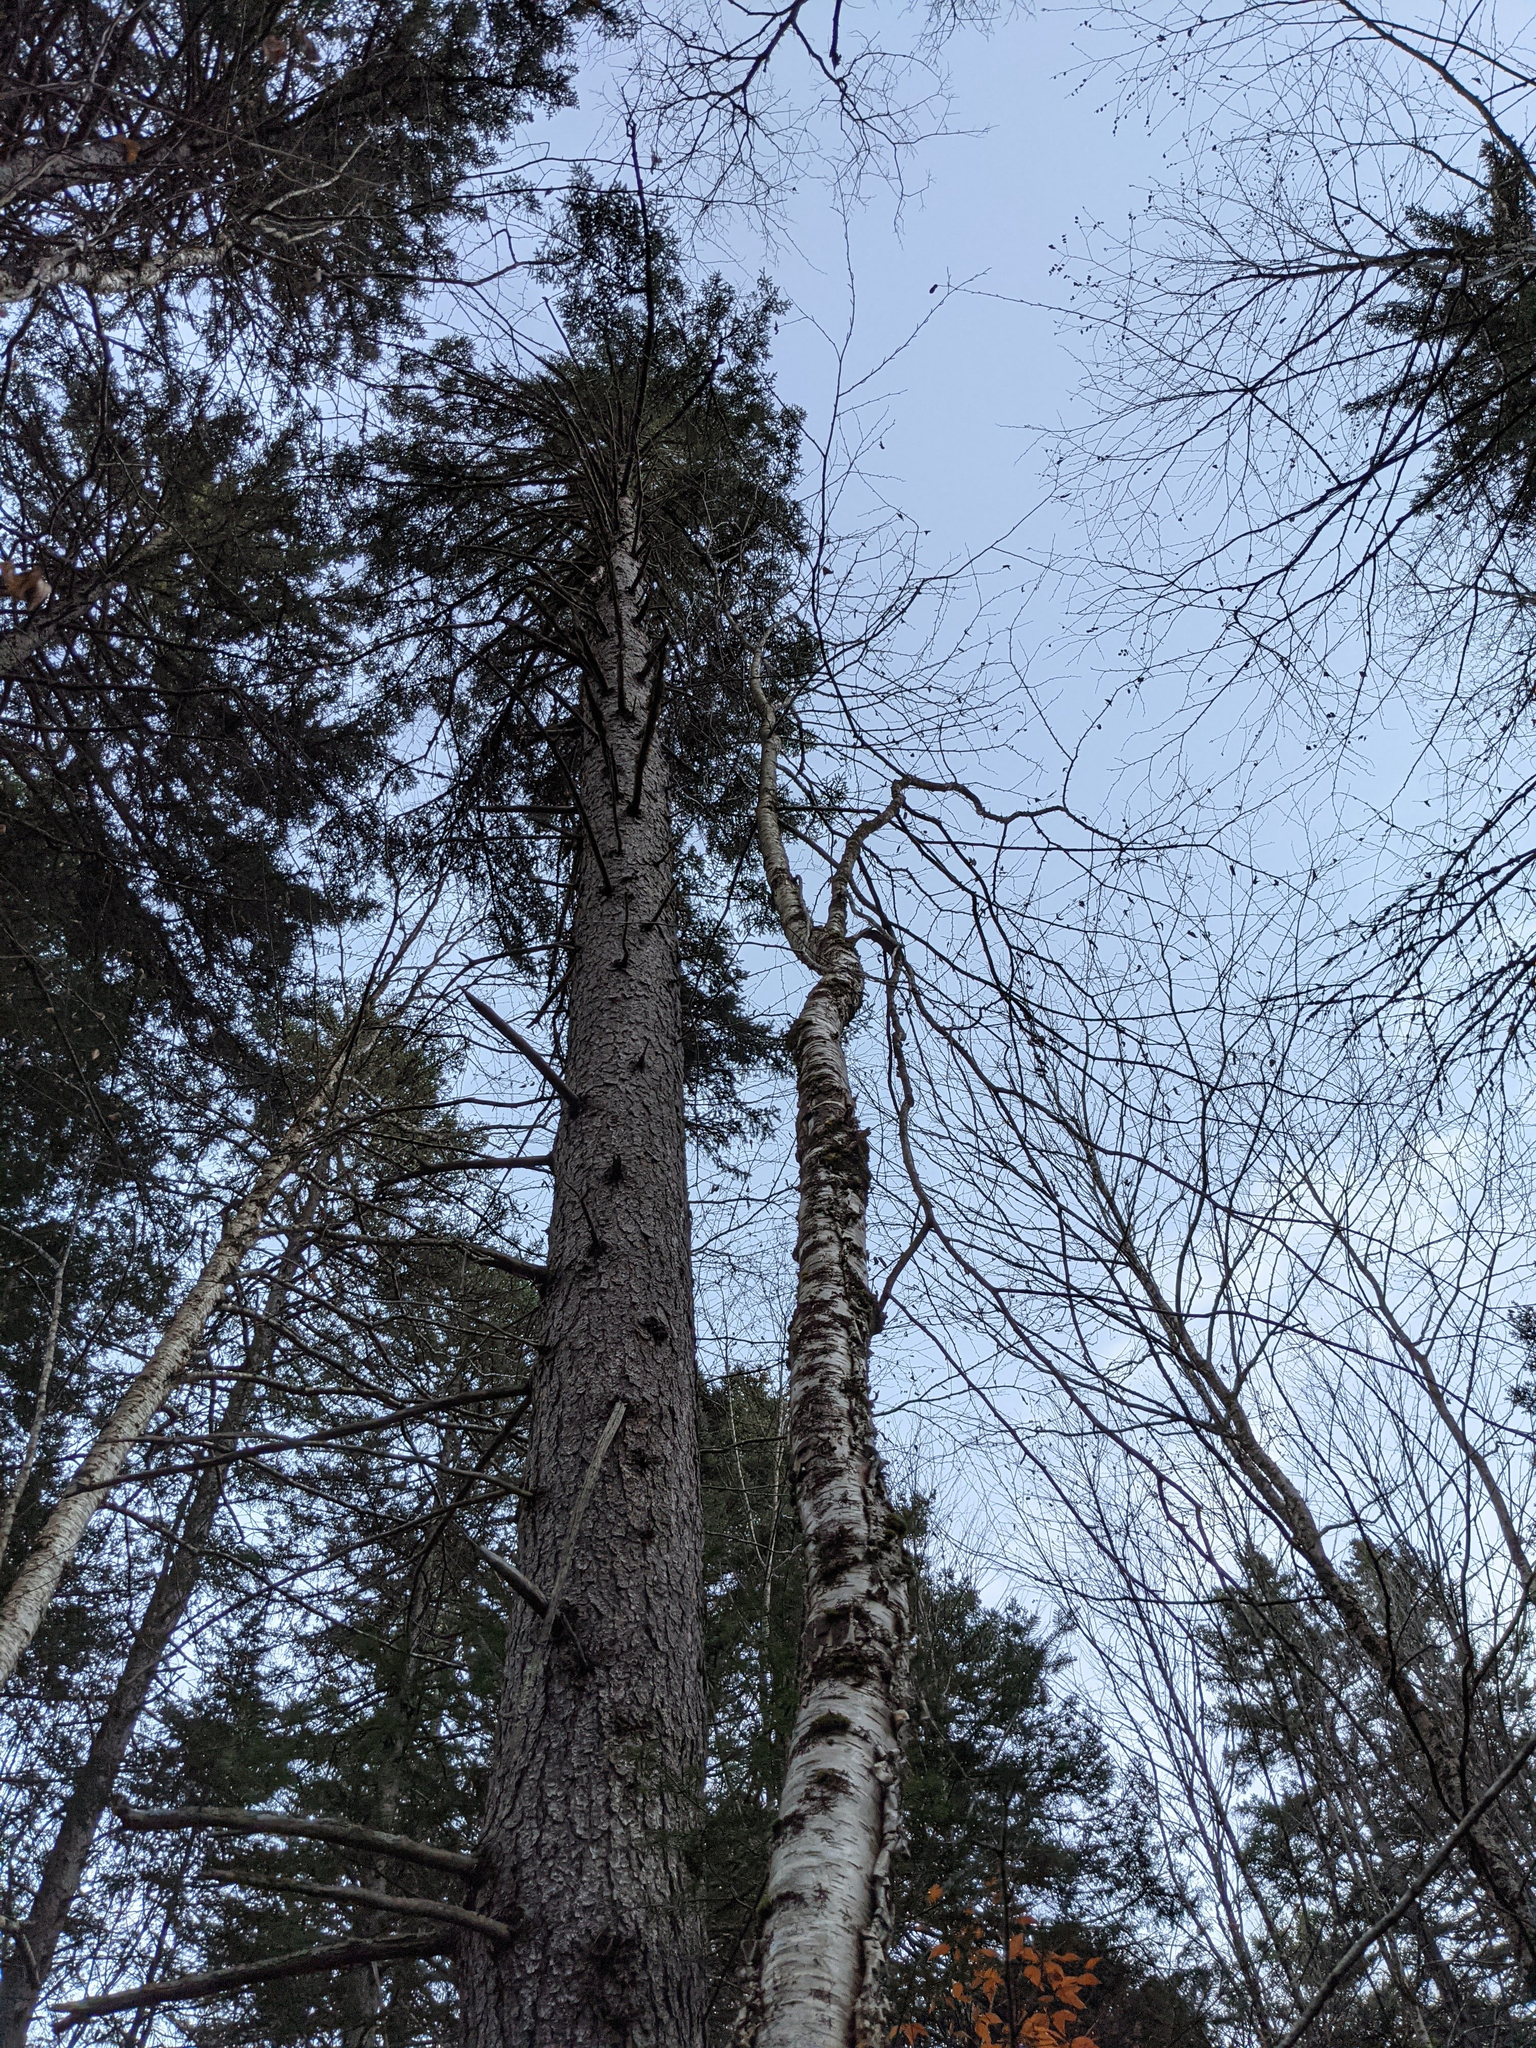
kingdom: Plantae
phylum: Tracheophyta
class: Magnoliopsida
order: Fagales
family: Betulaceae
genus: Betula
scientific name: Betula alleghaniensis
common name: Yellow birch
